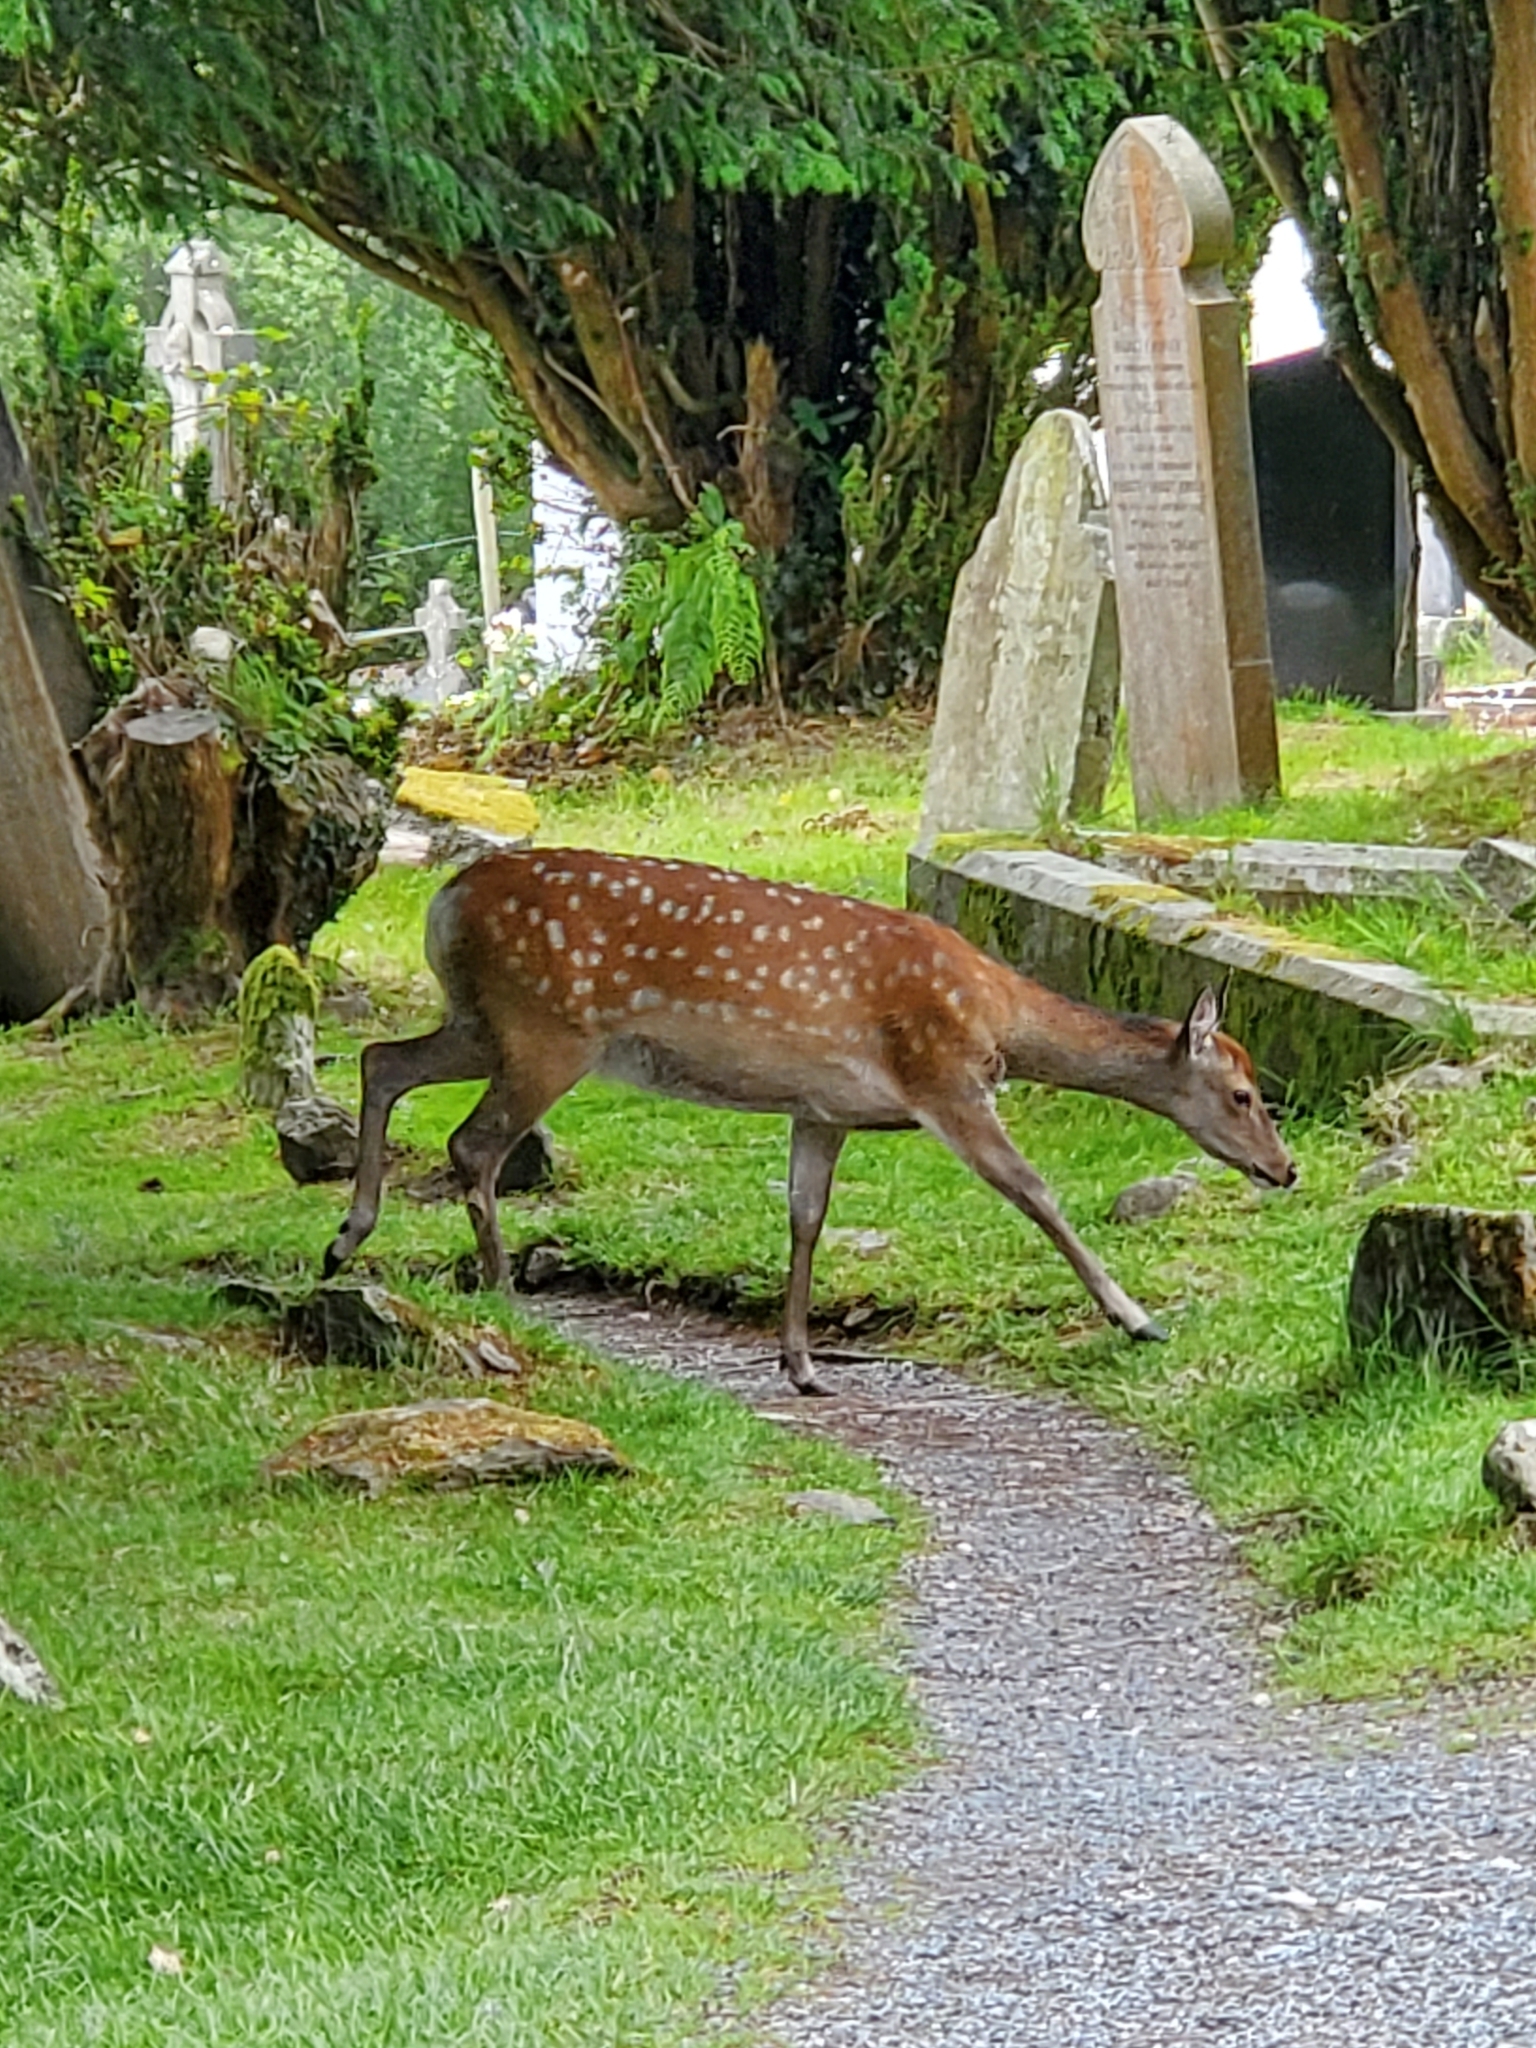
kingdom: Animalia
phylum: Chordata
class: Mammalia
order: Artiodactyla
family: Cervidae
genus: Cervus
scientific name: Cervus nippon
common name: Sika deer
